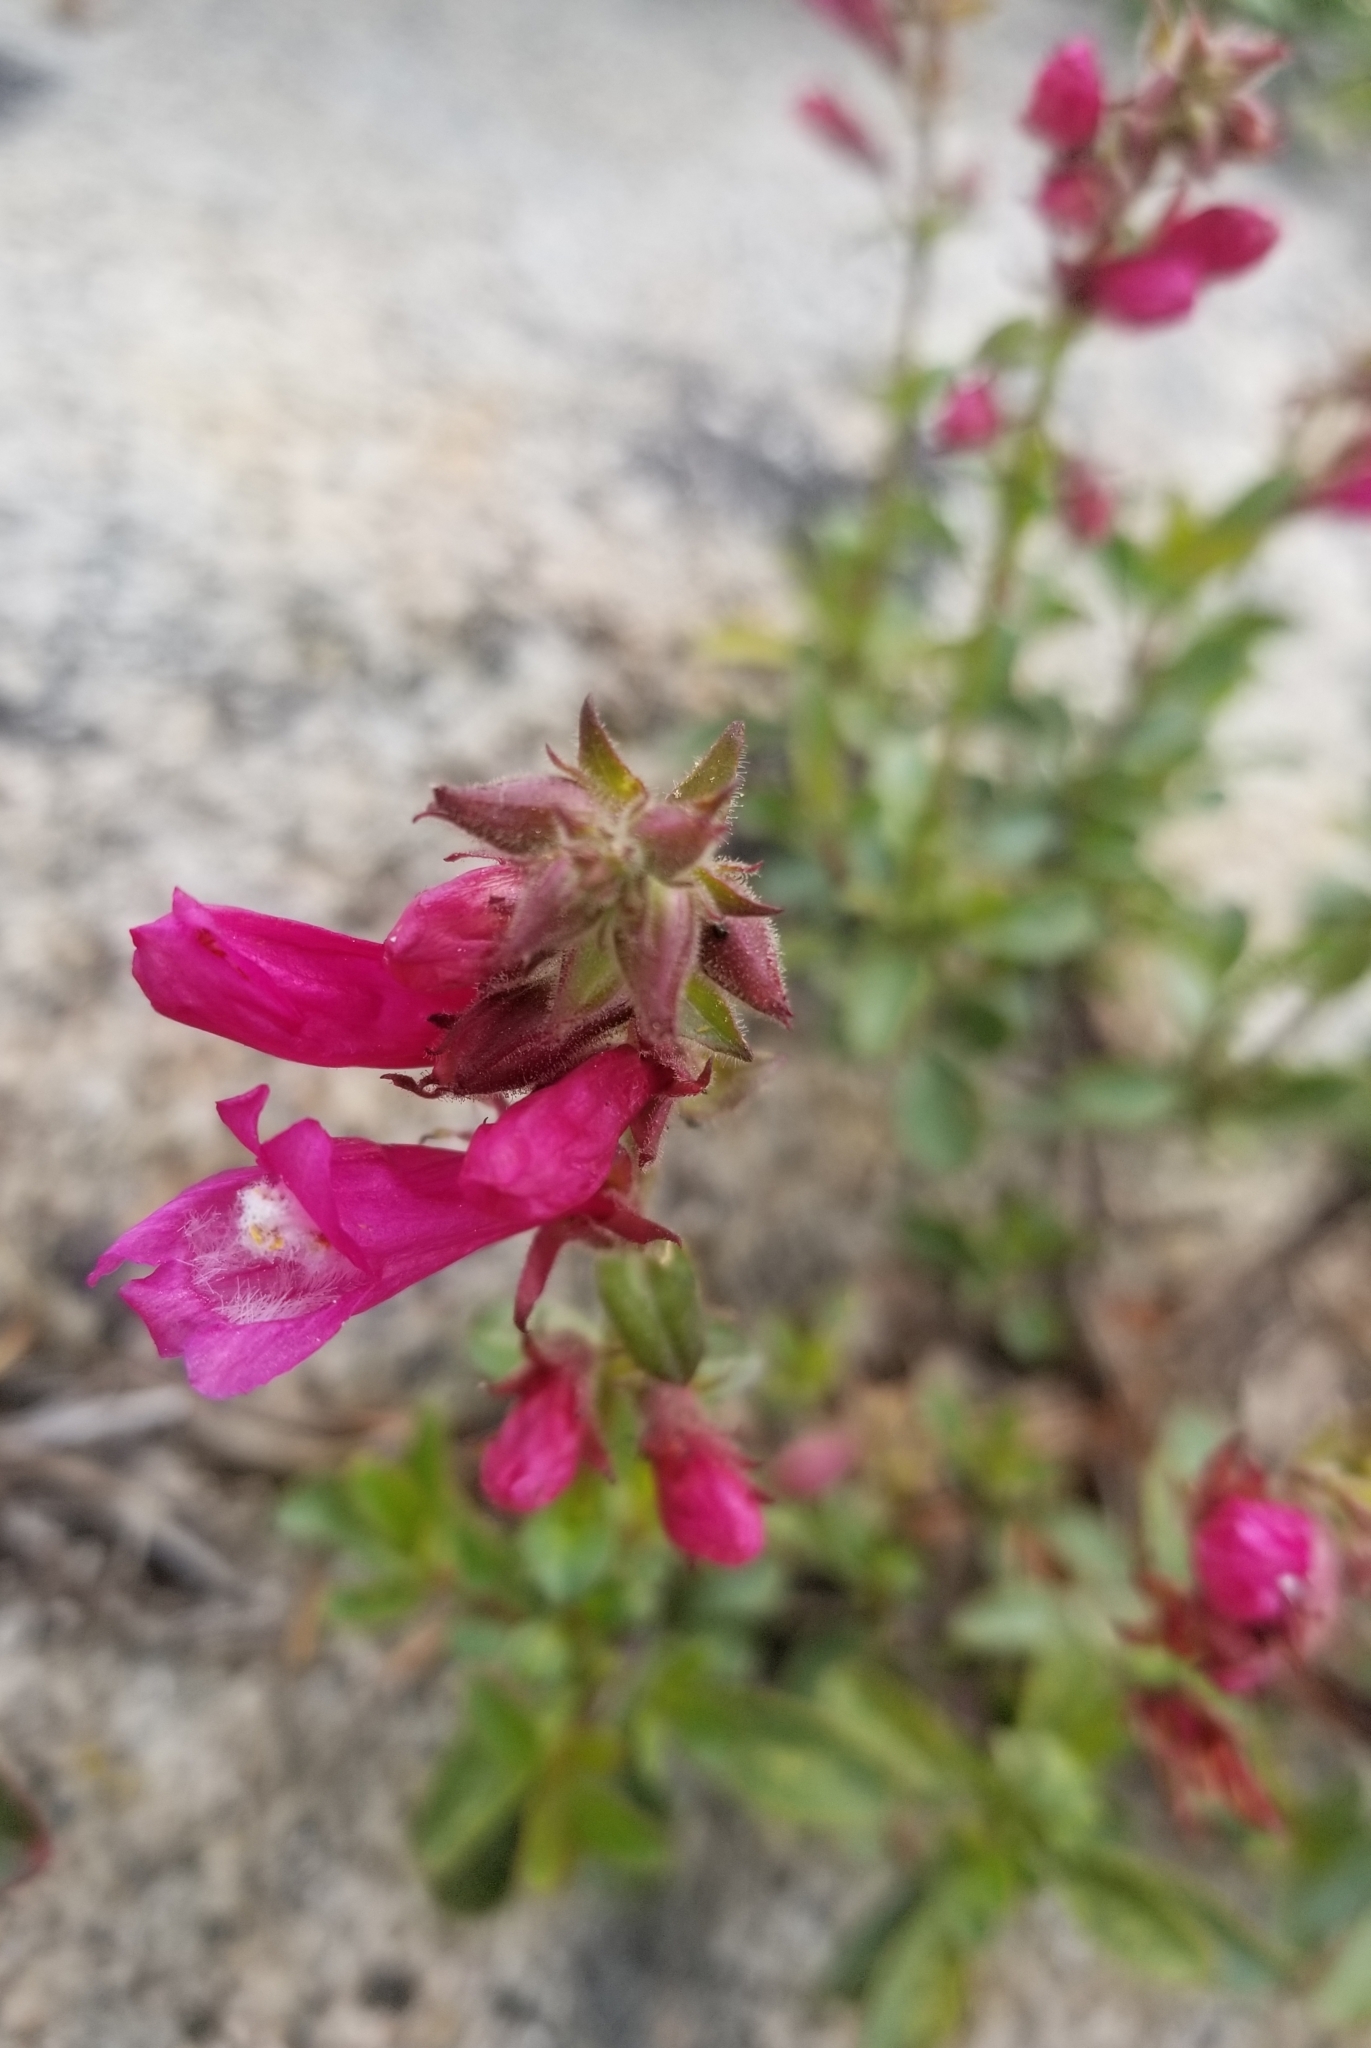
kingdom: Plantae
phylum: Tracheophyta
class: Magnoliopsida
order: Lamiales
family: Plantaginaceae
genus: Penstemon
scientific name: Penstemon newberryi
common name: Mountain-pride
